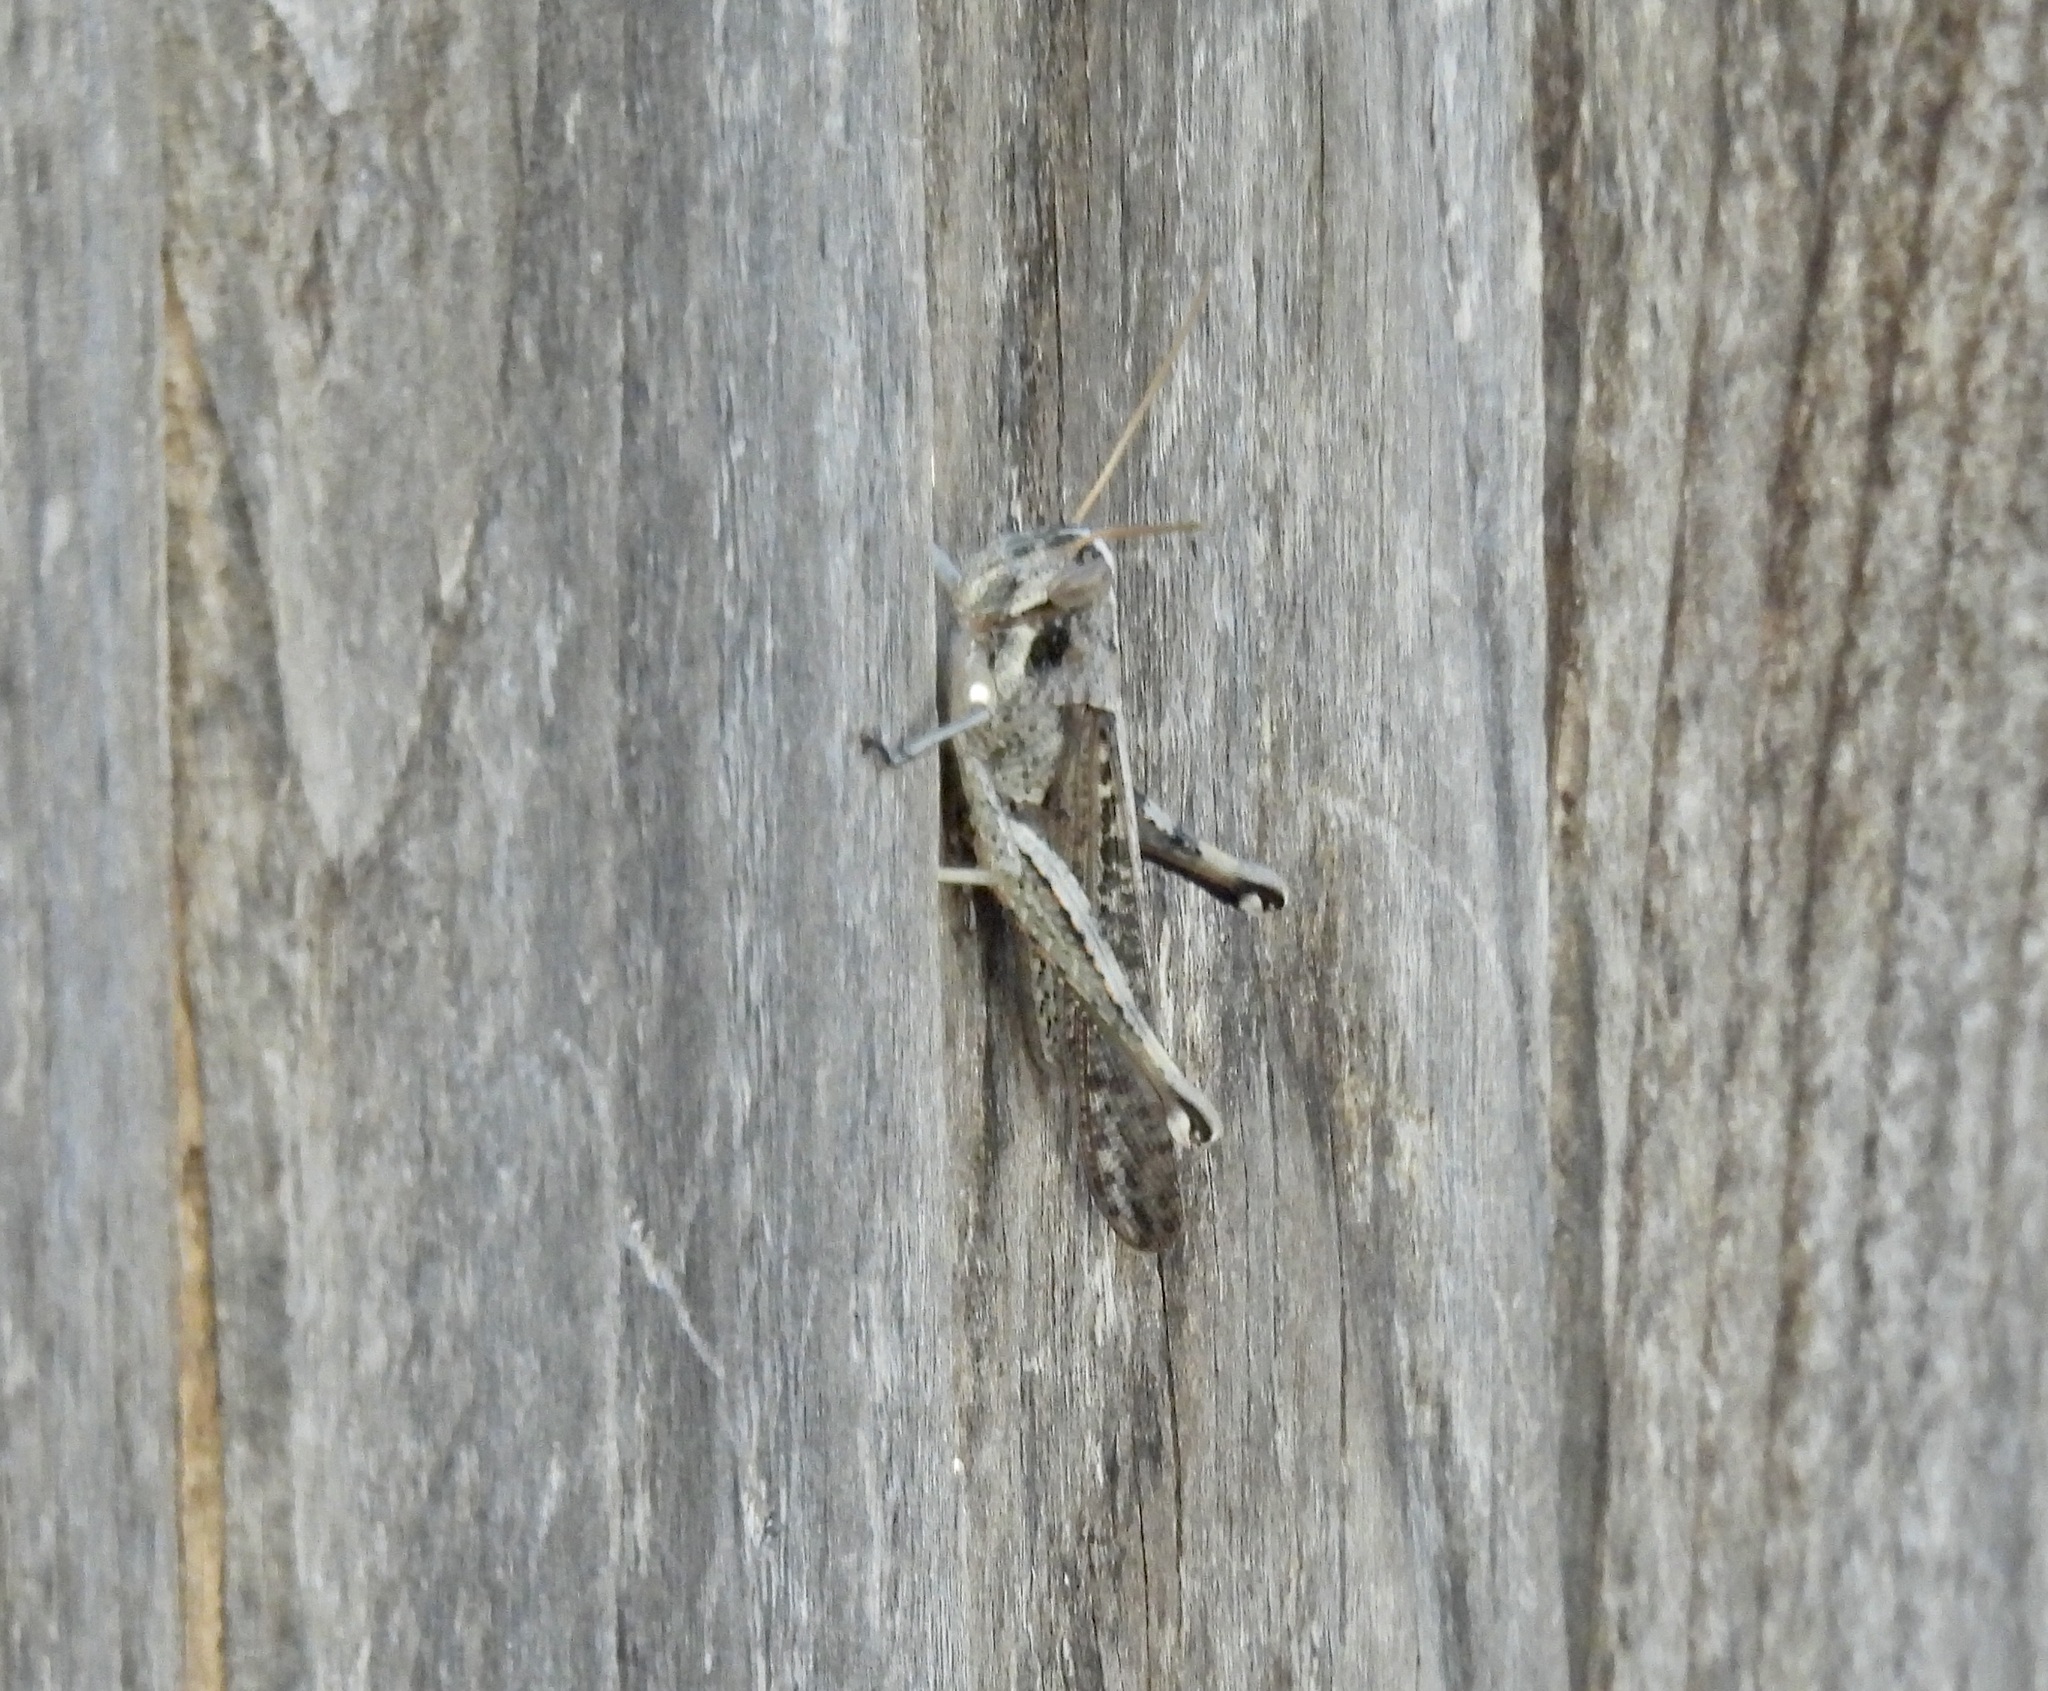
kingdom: Animalia
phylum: Arthropoda
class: Insecta
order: Orthoptera
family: Acrididae
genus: Schistocerca
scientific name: Schistocerca nitens
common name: Vagrant grasshopper
